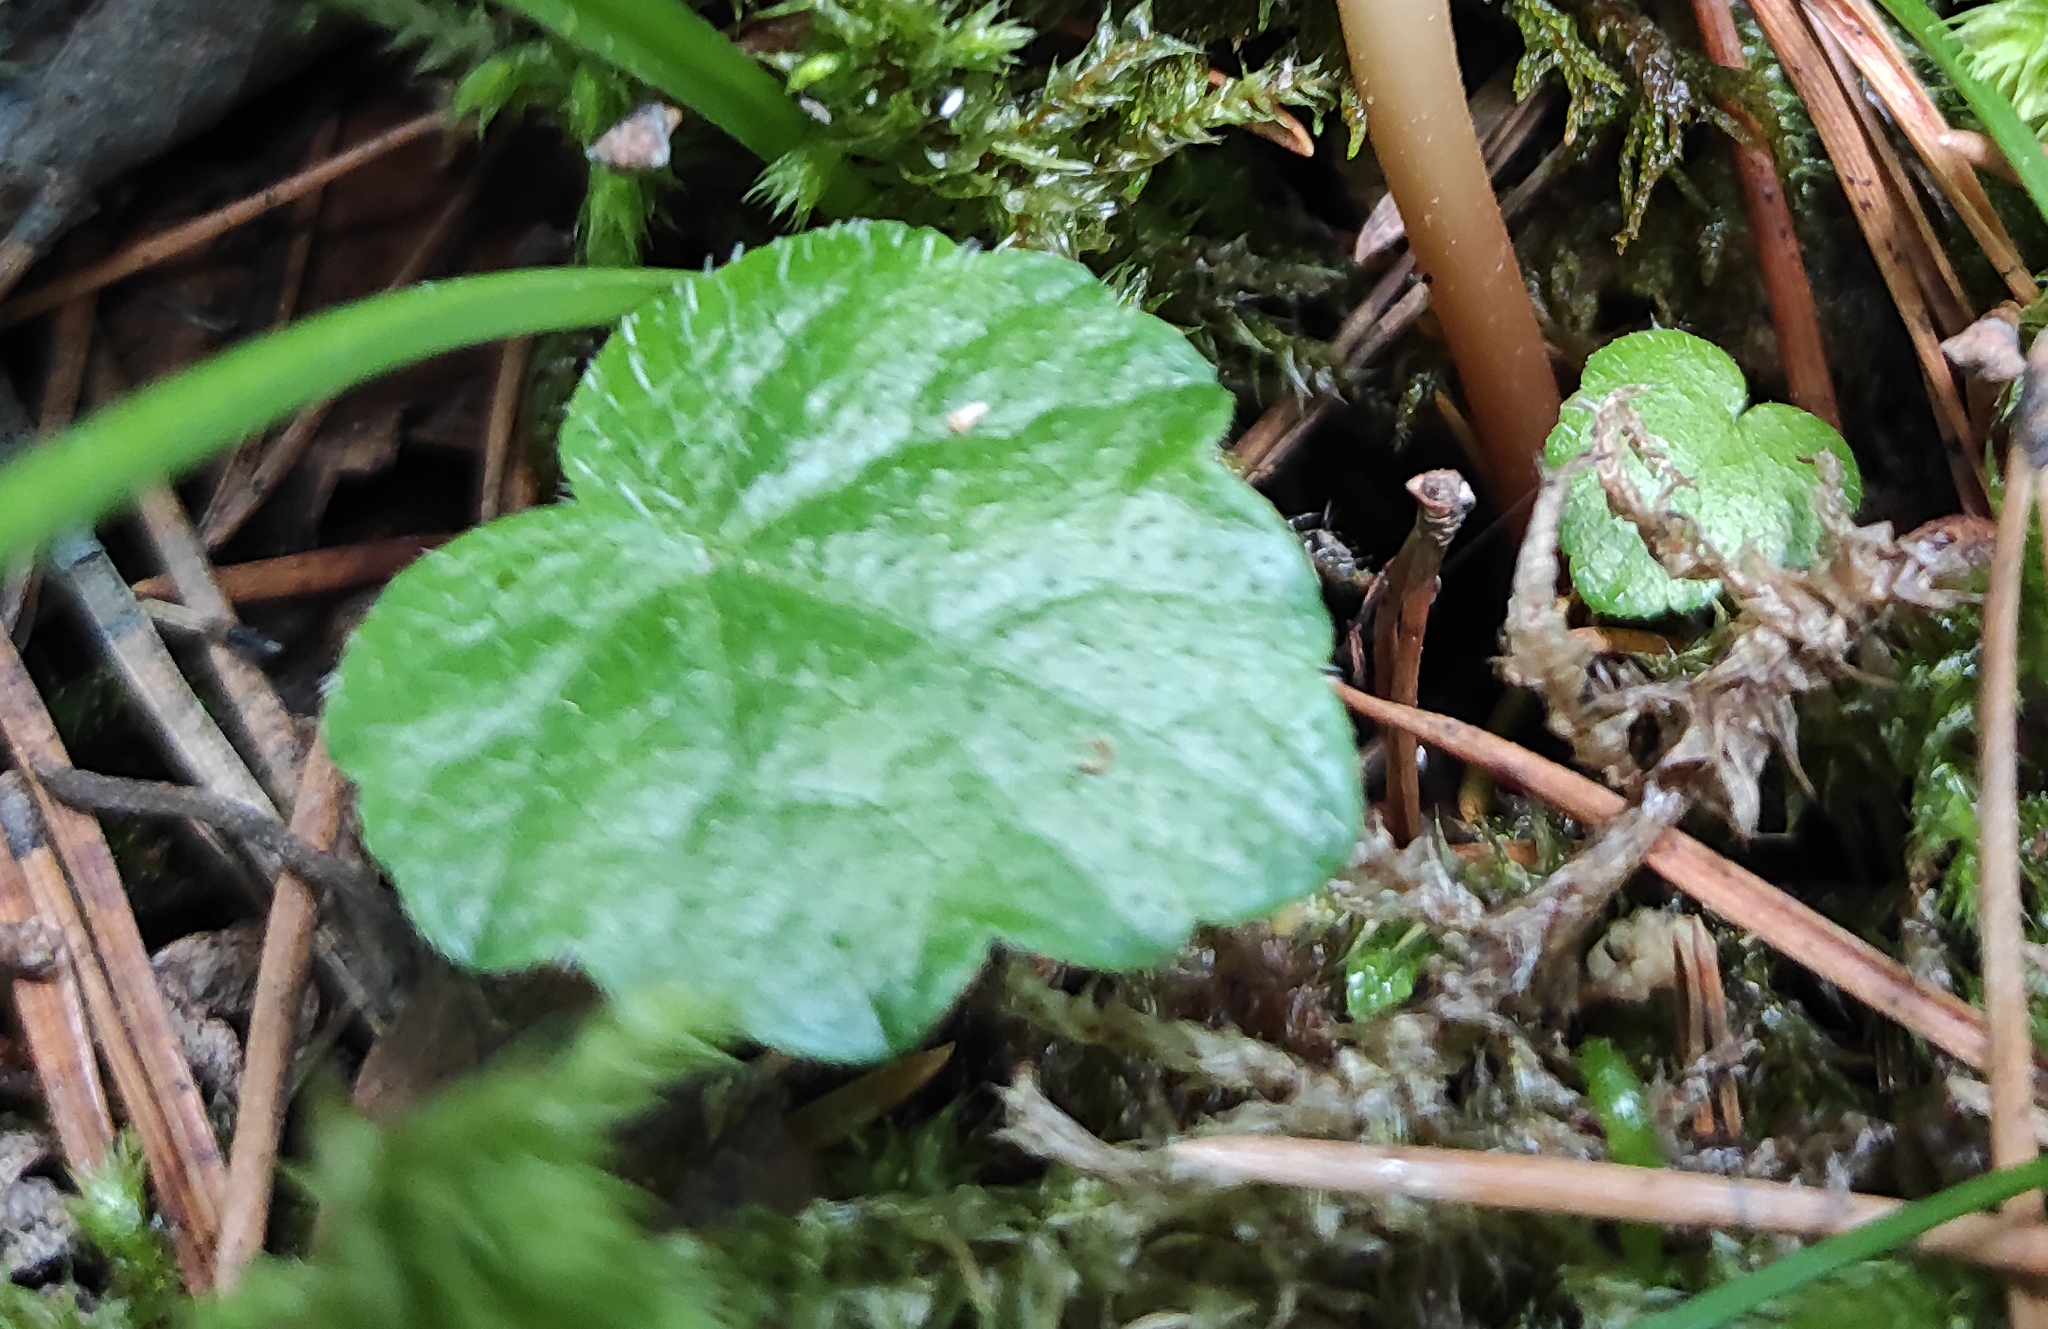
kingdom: Plantae
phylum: Tracheophyta
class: Magnoliopsida
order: Saxifragales
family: Saxifragaceae
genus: Mitella
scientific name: Mitella nuda
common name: Bare-stemmed bishop's-cap
